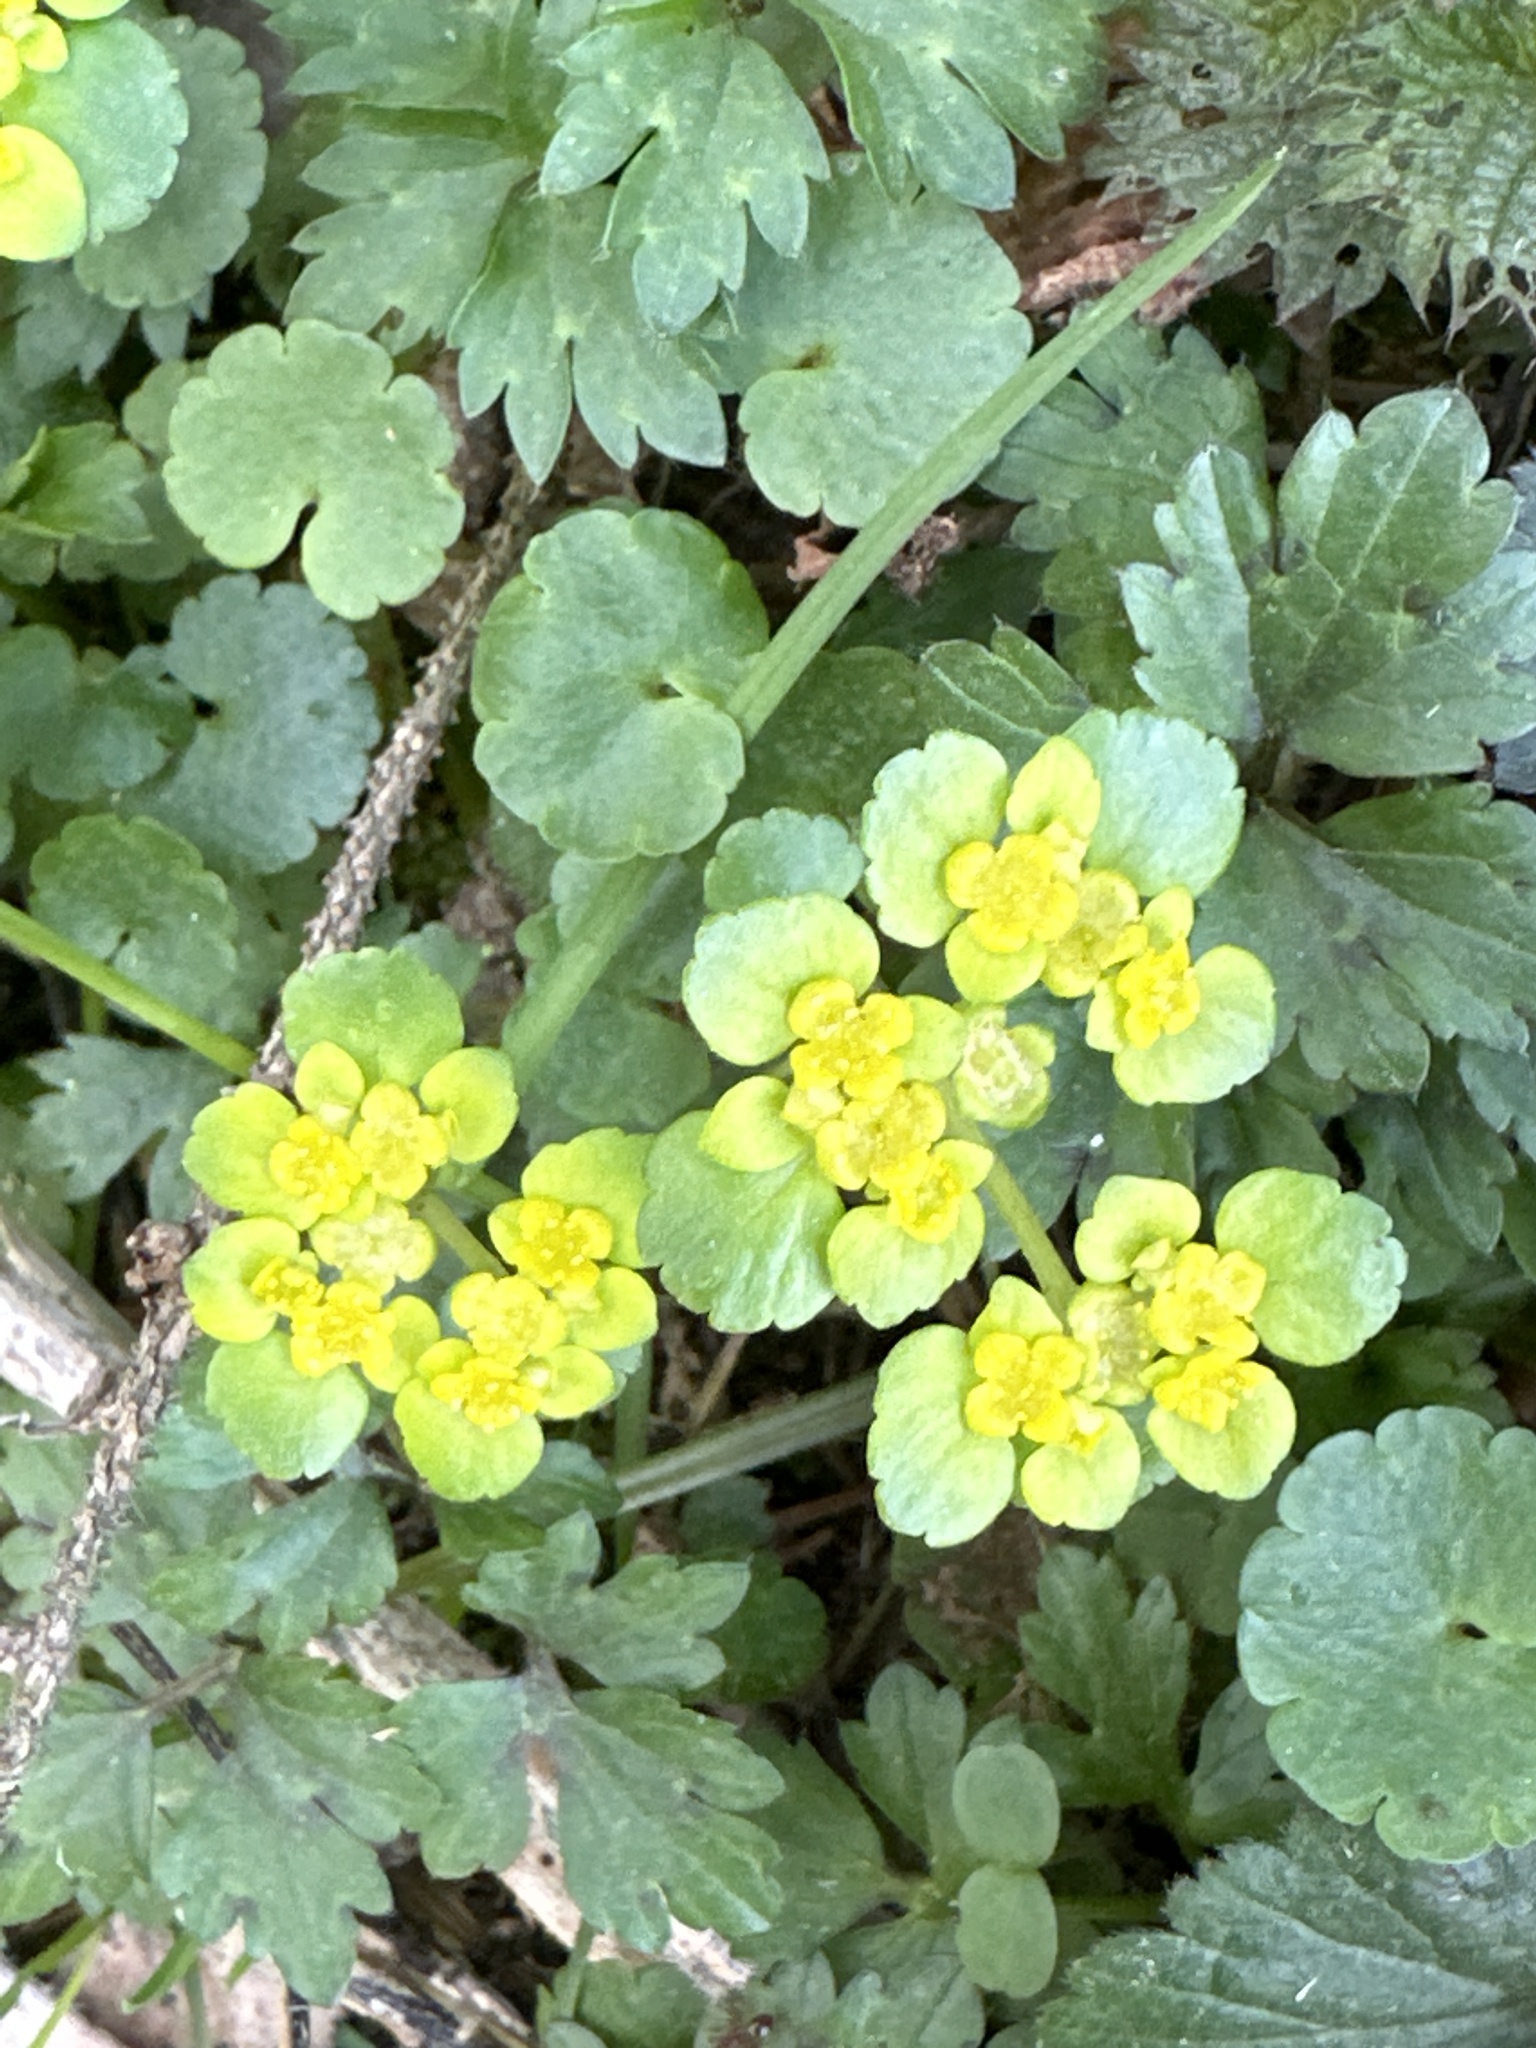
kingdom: Plantae
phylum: Tracheophyta
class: Magnoliopsida
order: Saxifragales
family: Saxifragaceae
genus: Chrysosplenium
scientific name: Chrysosplenium alternifolium
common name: Alternate-leaved golden-saxifrage
